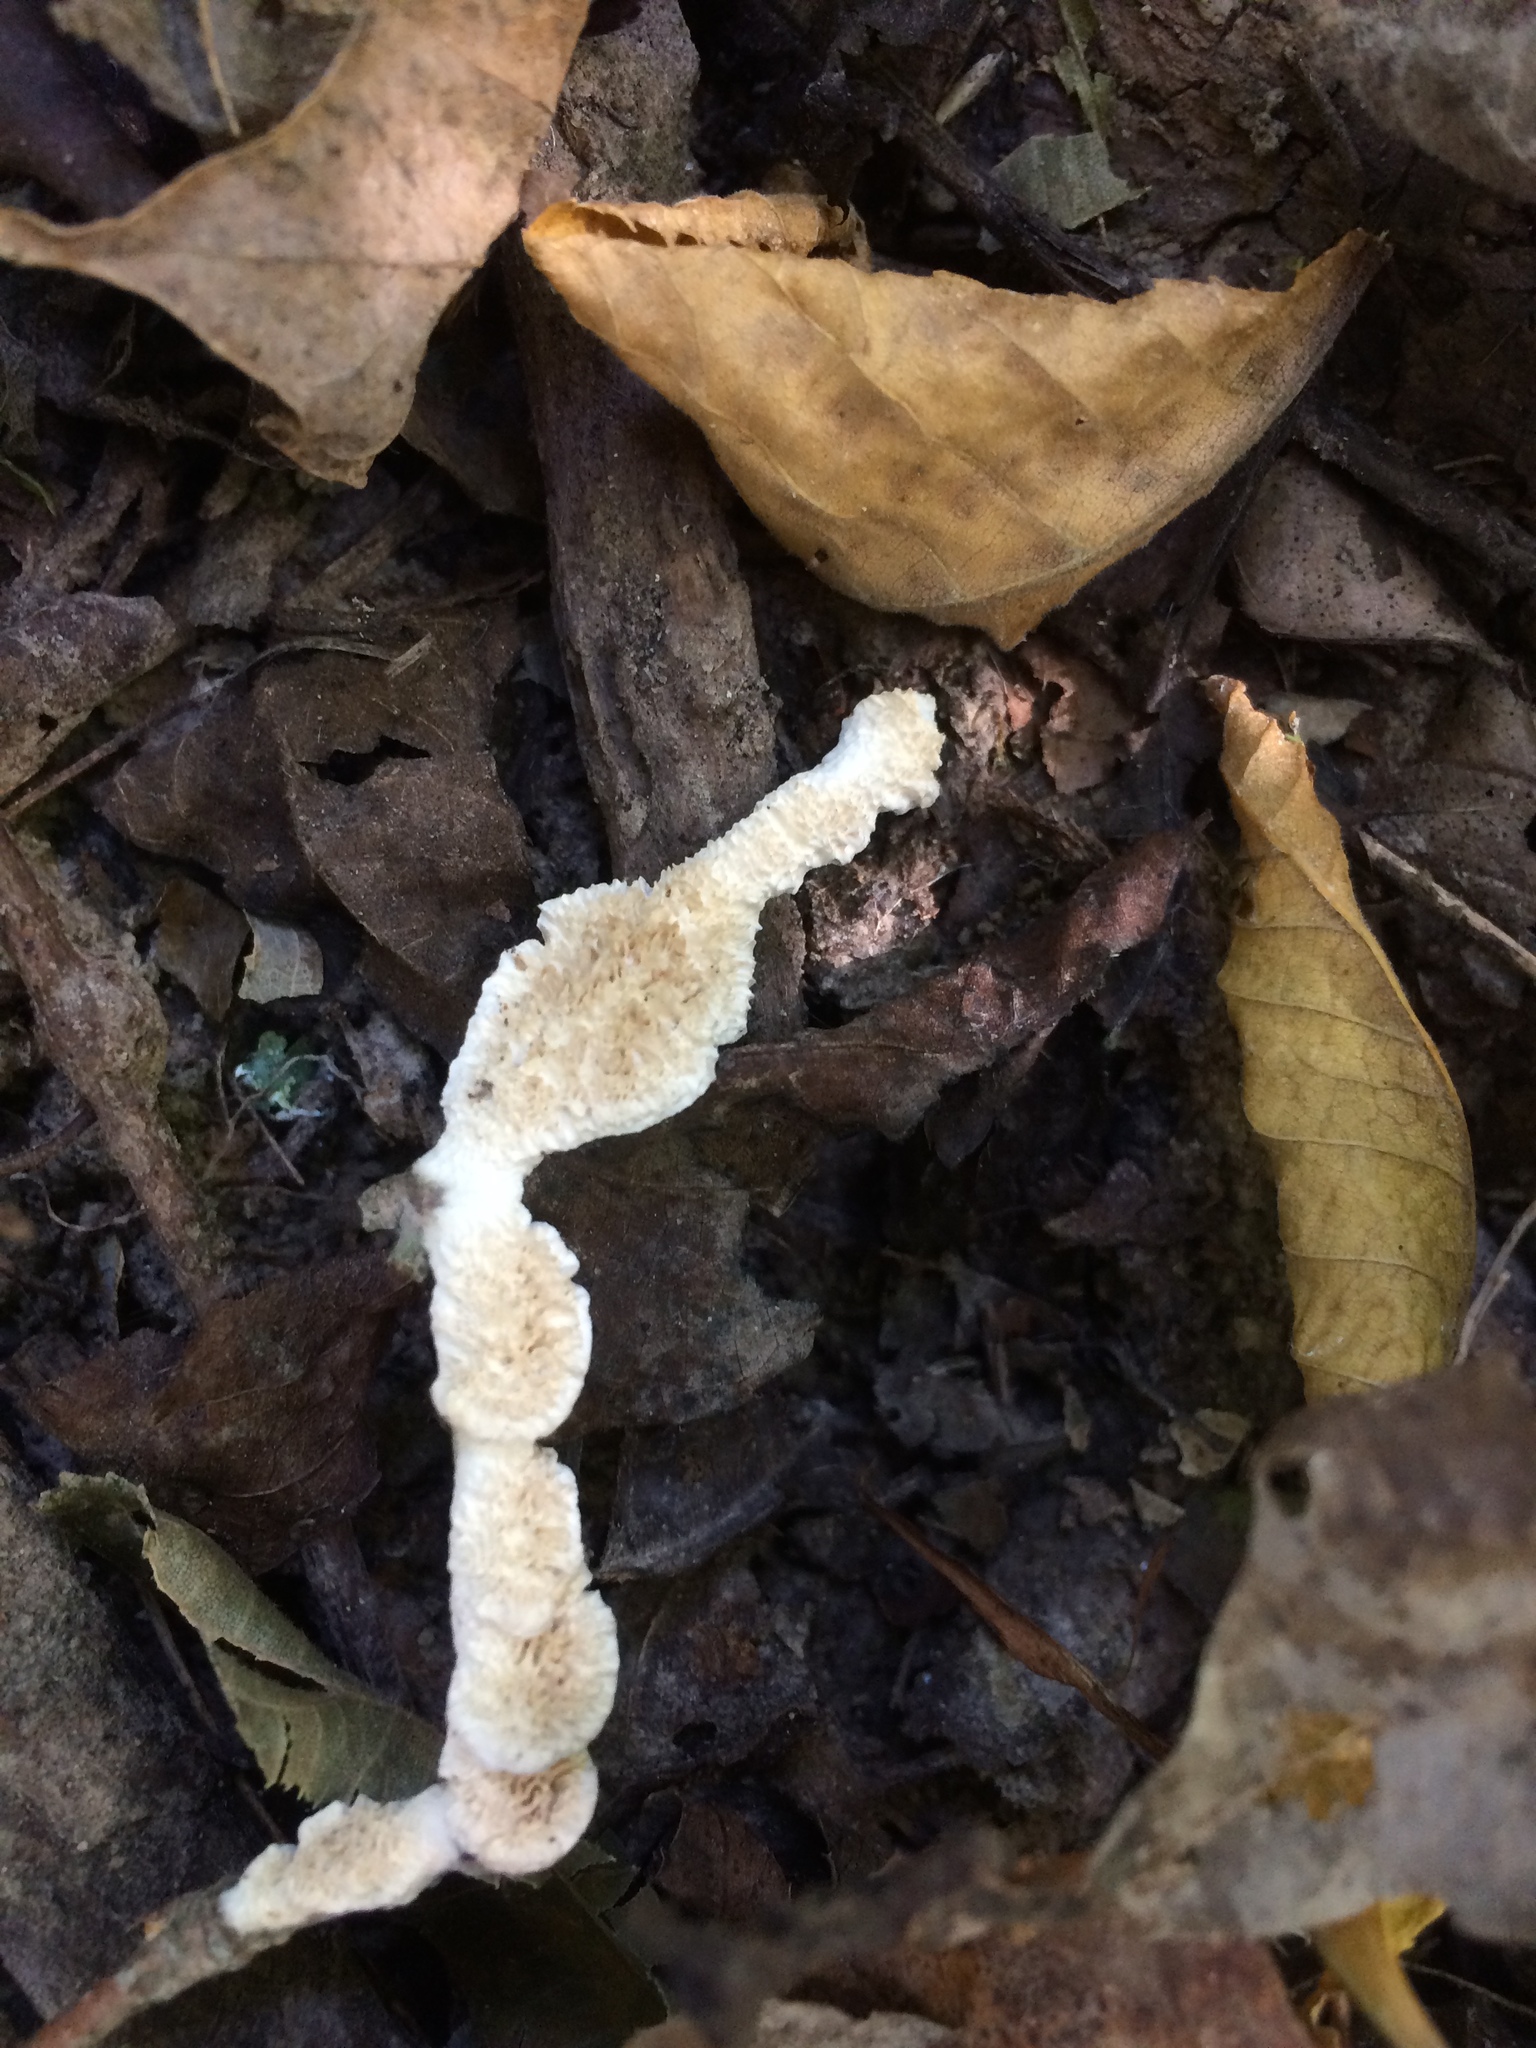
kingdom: Fungi
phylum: Basidiomycota
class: Agaricomycetes
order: Polyporales
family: Irpicaceae
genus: Irpex
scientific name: Irpex lacteus
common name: Milk-white toothed polypore
